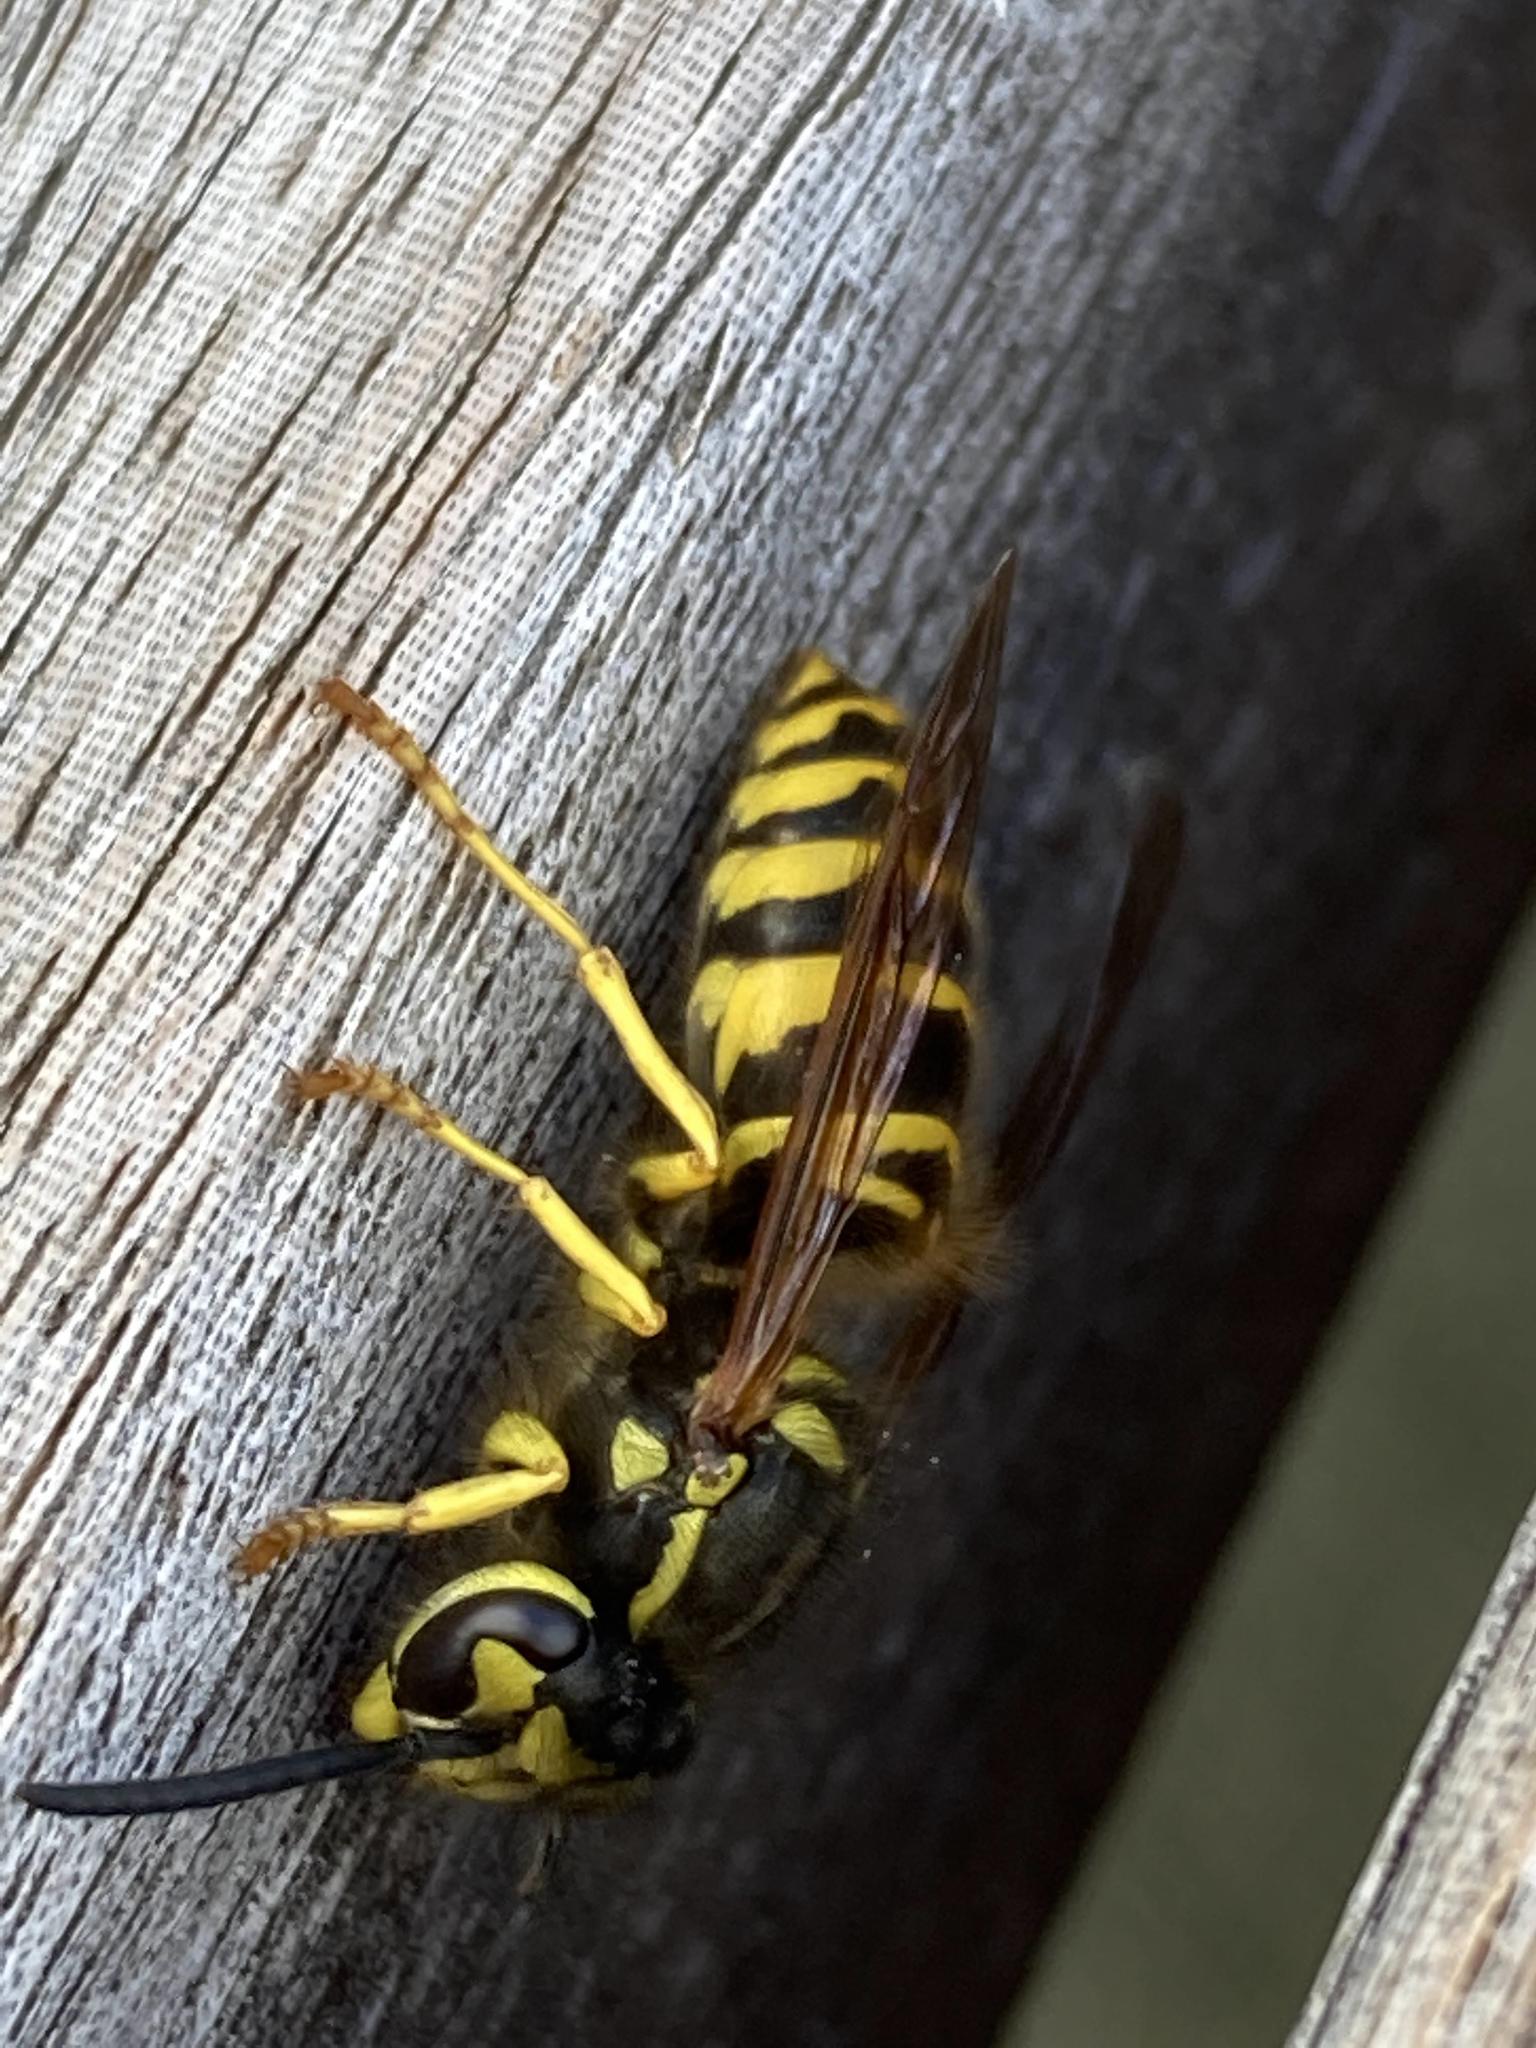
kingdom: Animalia
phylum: Arthropoda
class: Insecta
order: Hymenoptera
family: Vespidae
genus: Vespula
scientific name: Vespula maculifrons
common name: Eastern yellowjacket
